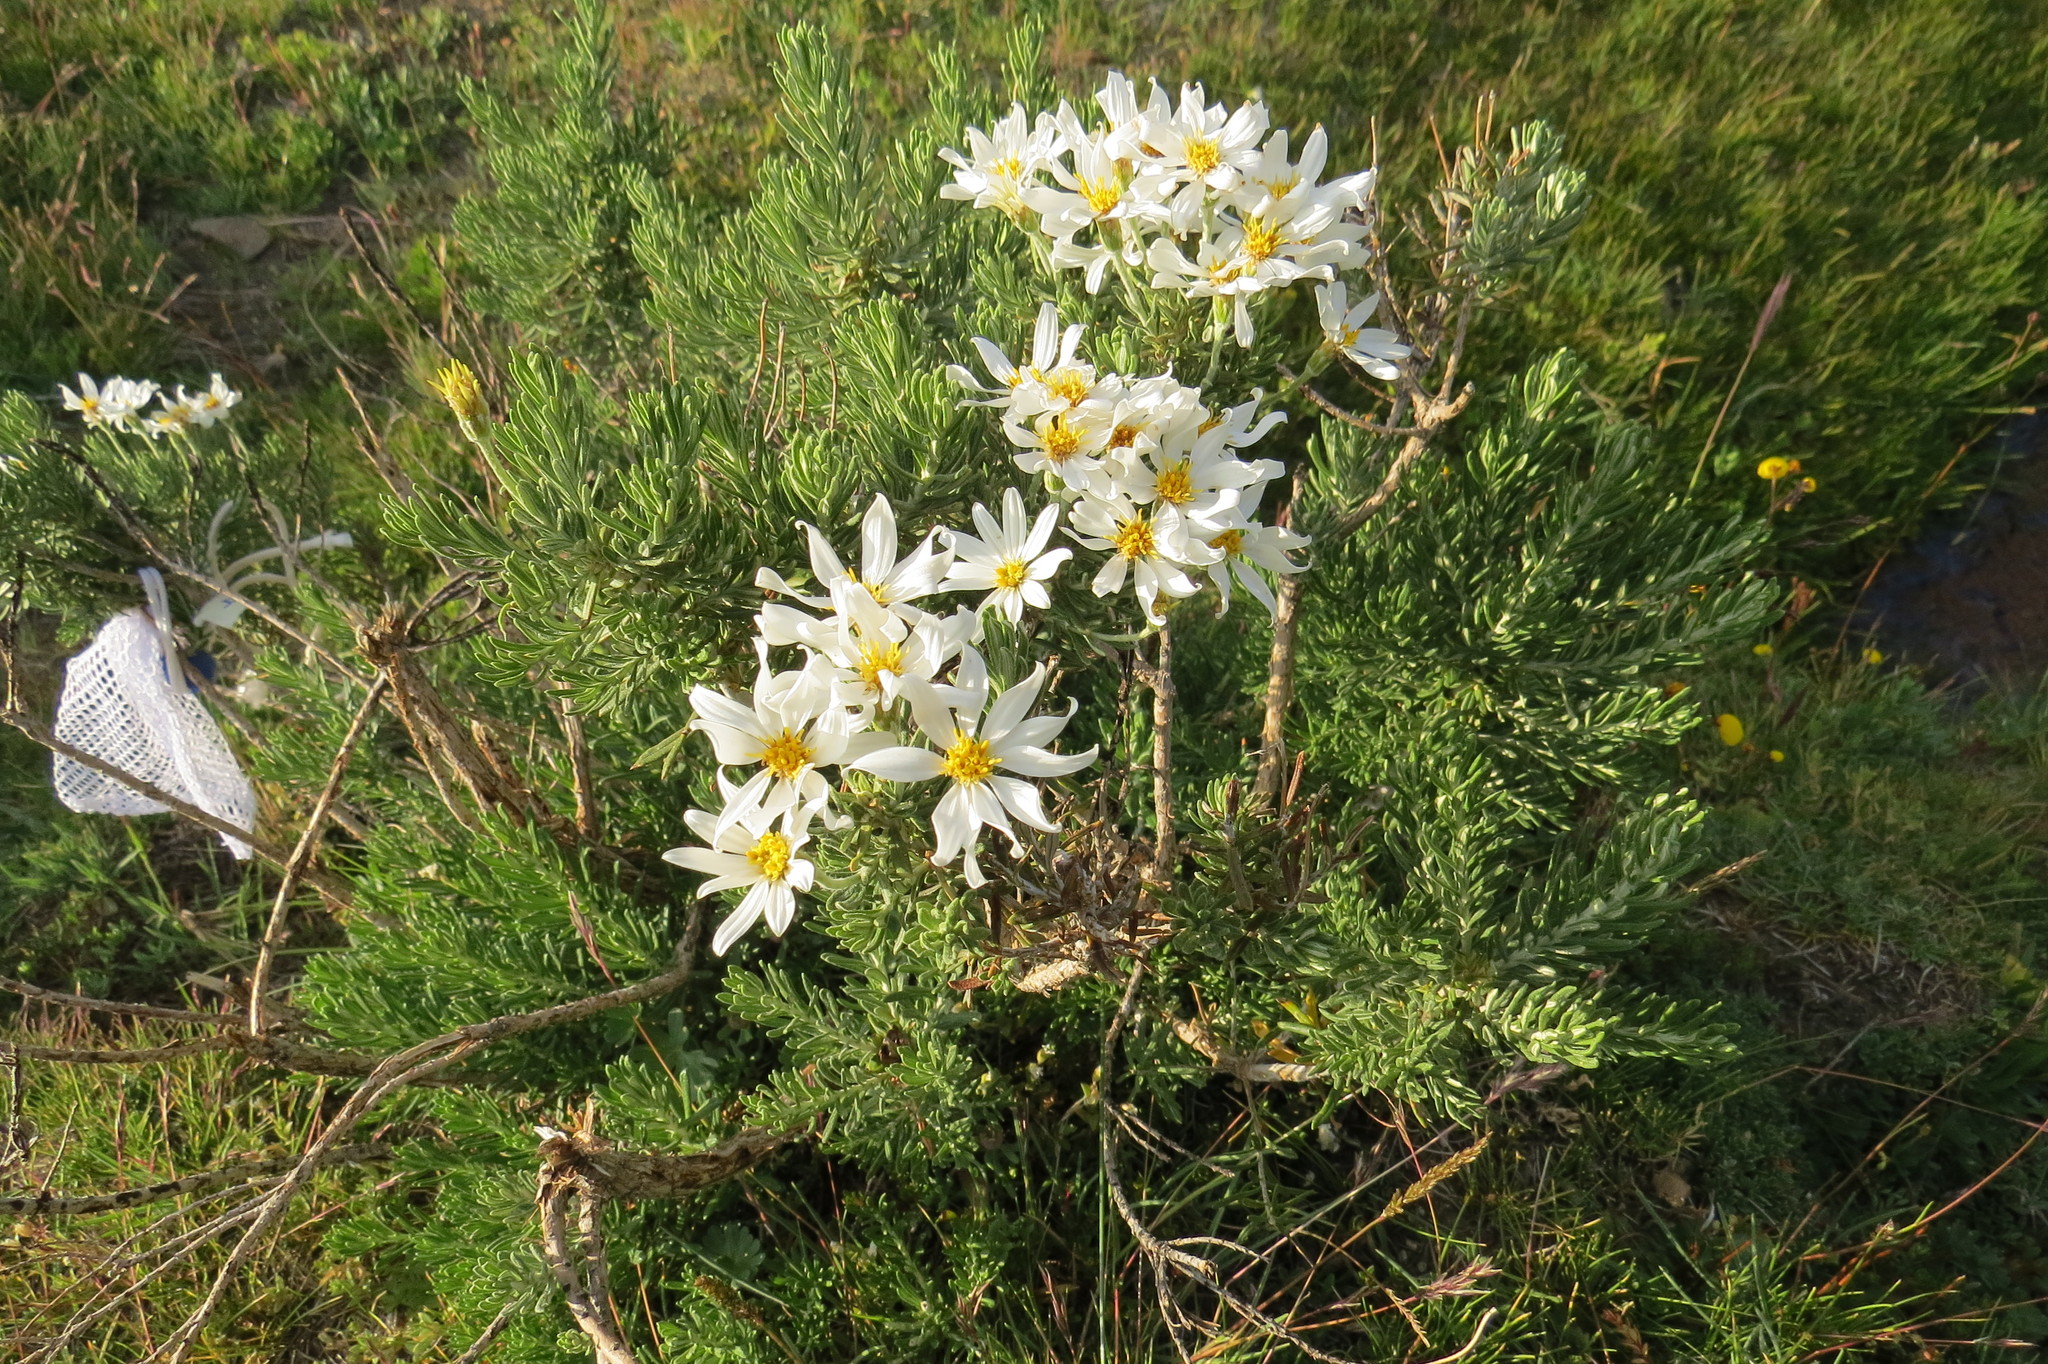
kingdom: Plantae
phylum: Tracheophyta
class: Magnoliopsida
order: Asterales
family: Asteraceae
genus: Chiliotrichum
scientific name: Chiliotrichum diffusum
